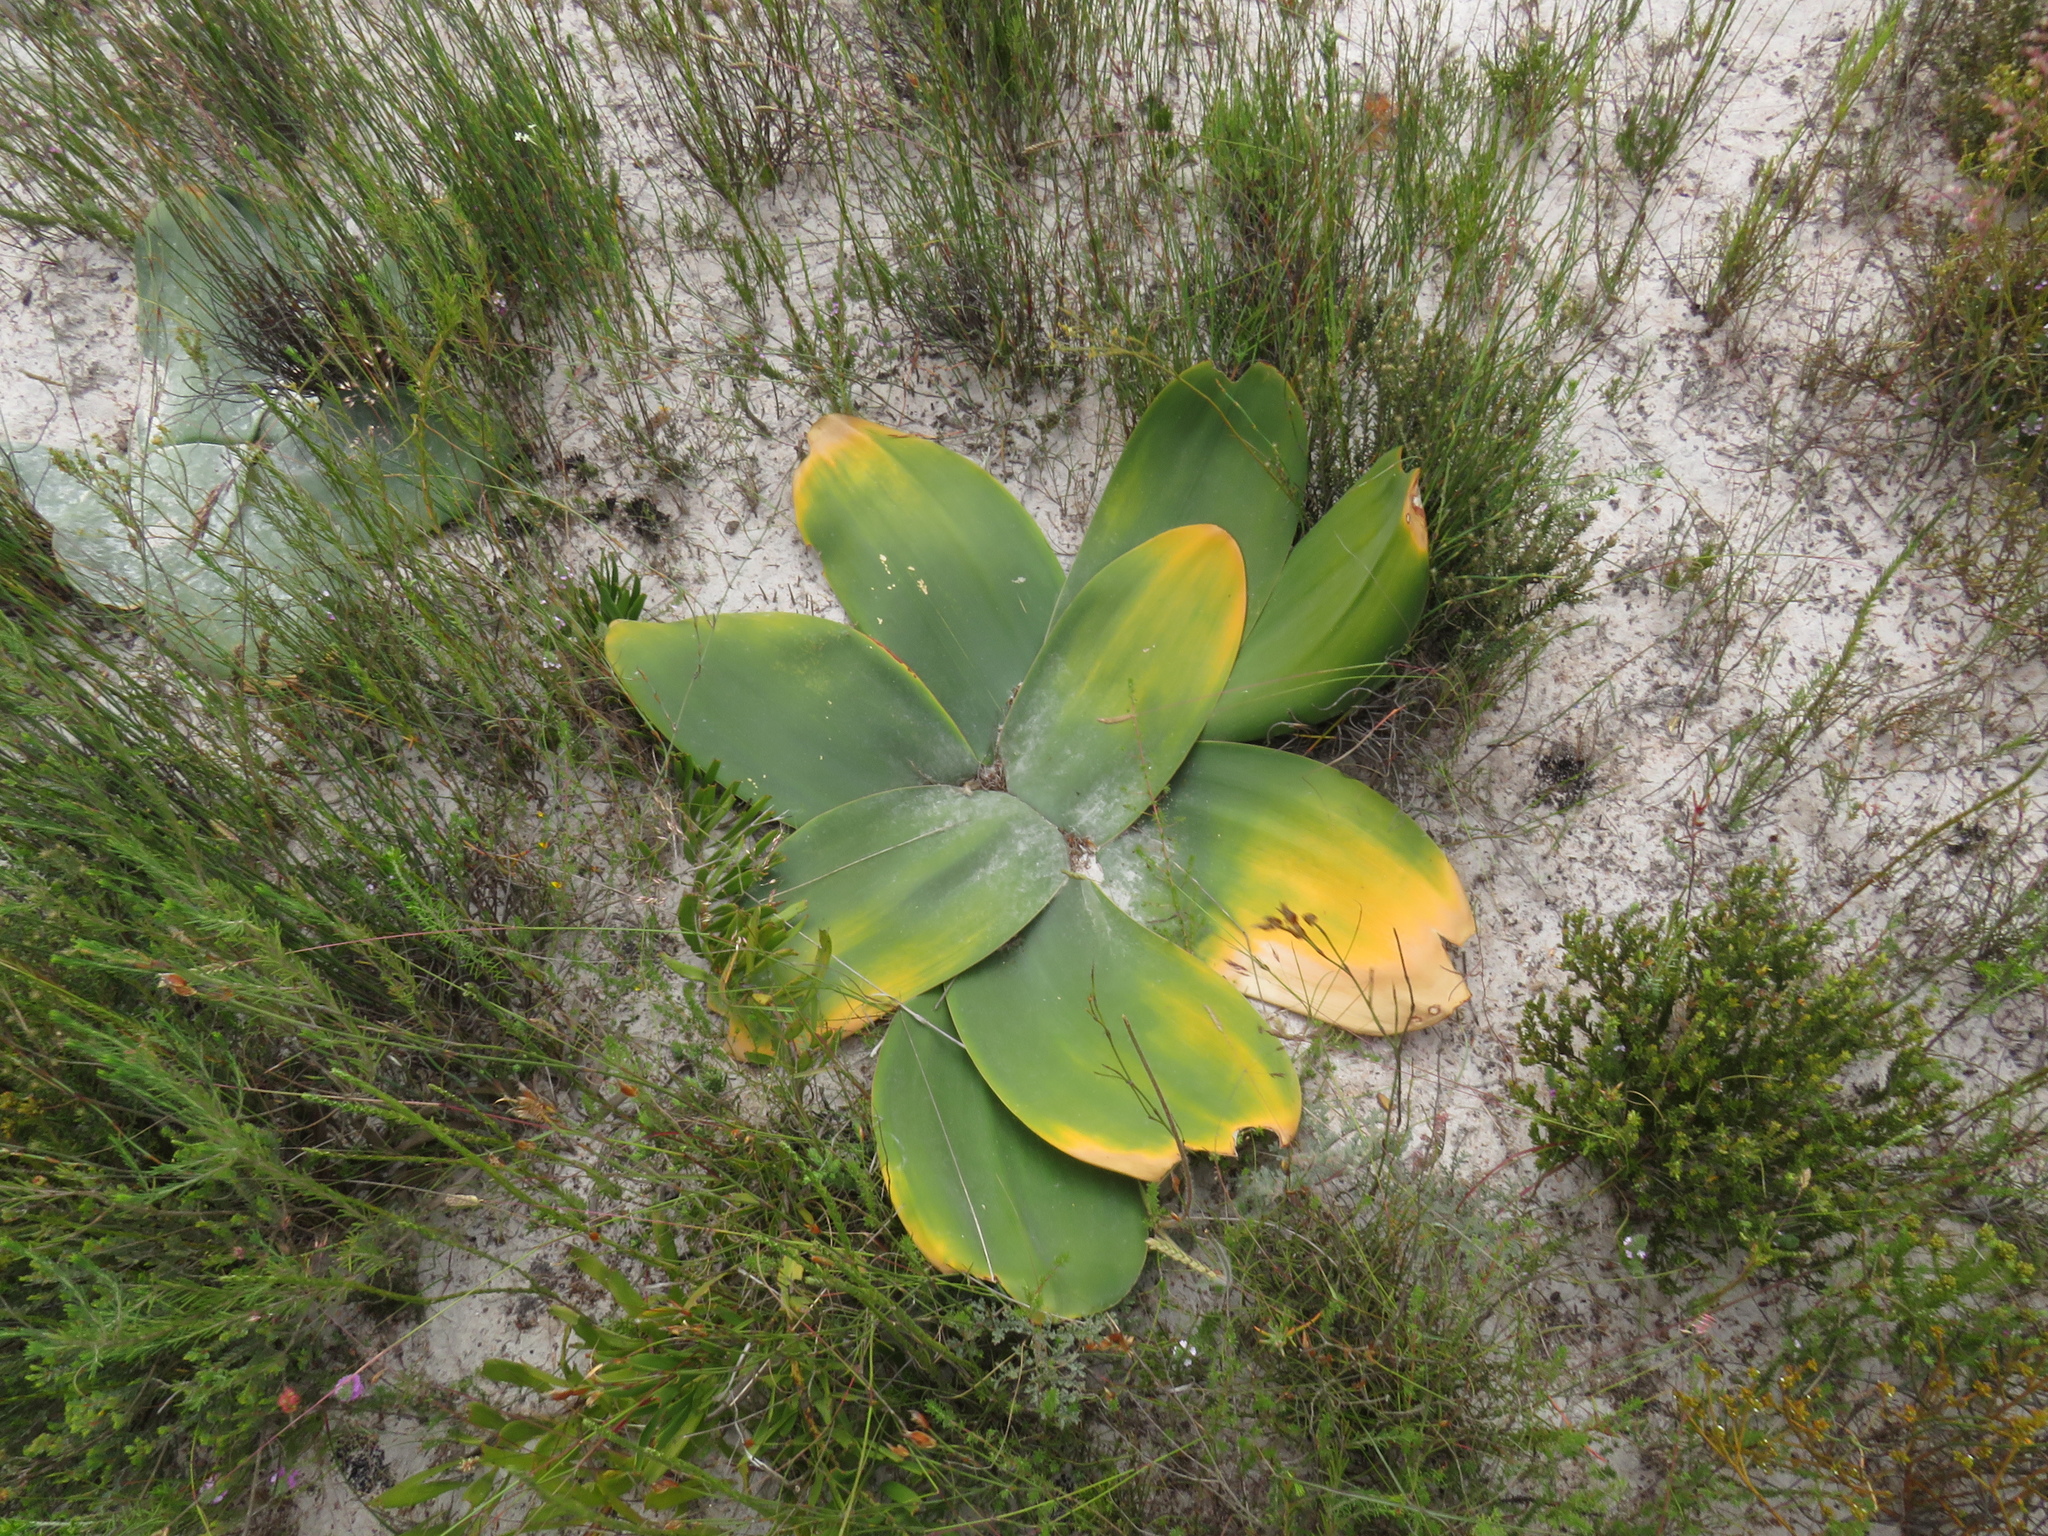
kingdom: Plantae
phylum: Tracheophyta
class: Liliopsida
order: Asparagales
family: Amaryllidaceae
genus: Brunsvigia
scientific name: Brunsvigia orientalis
